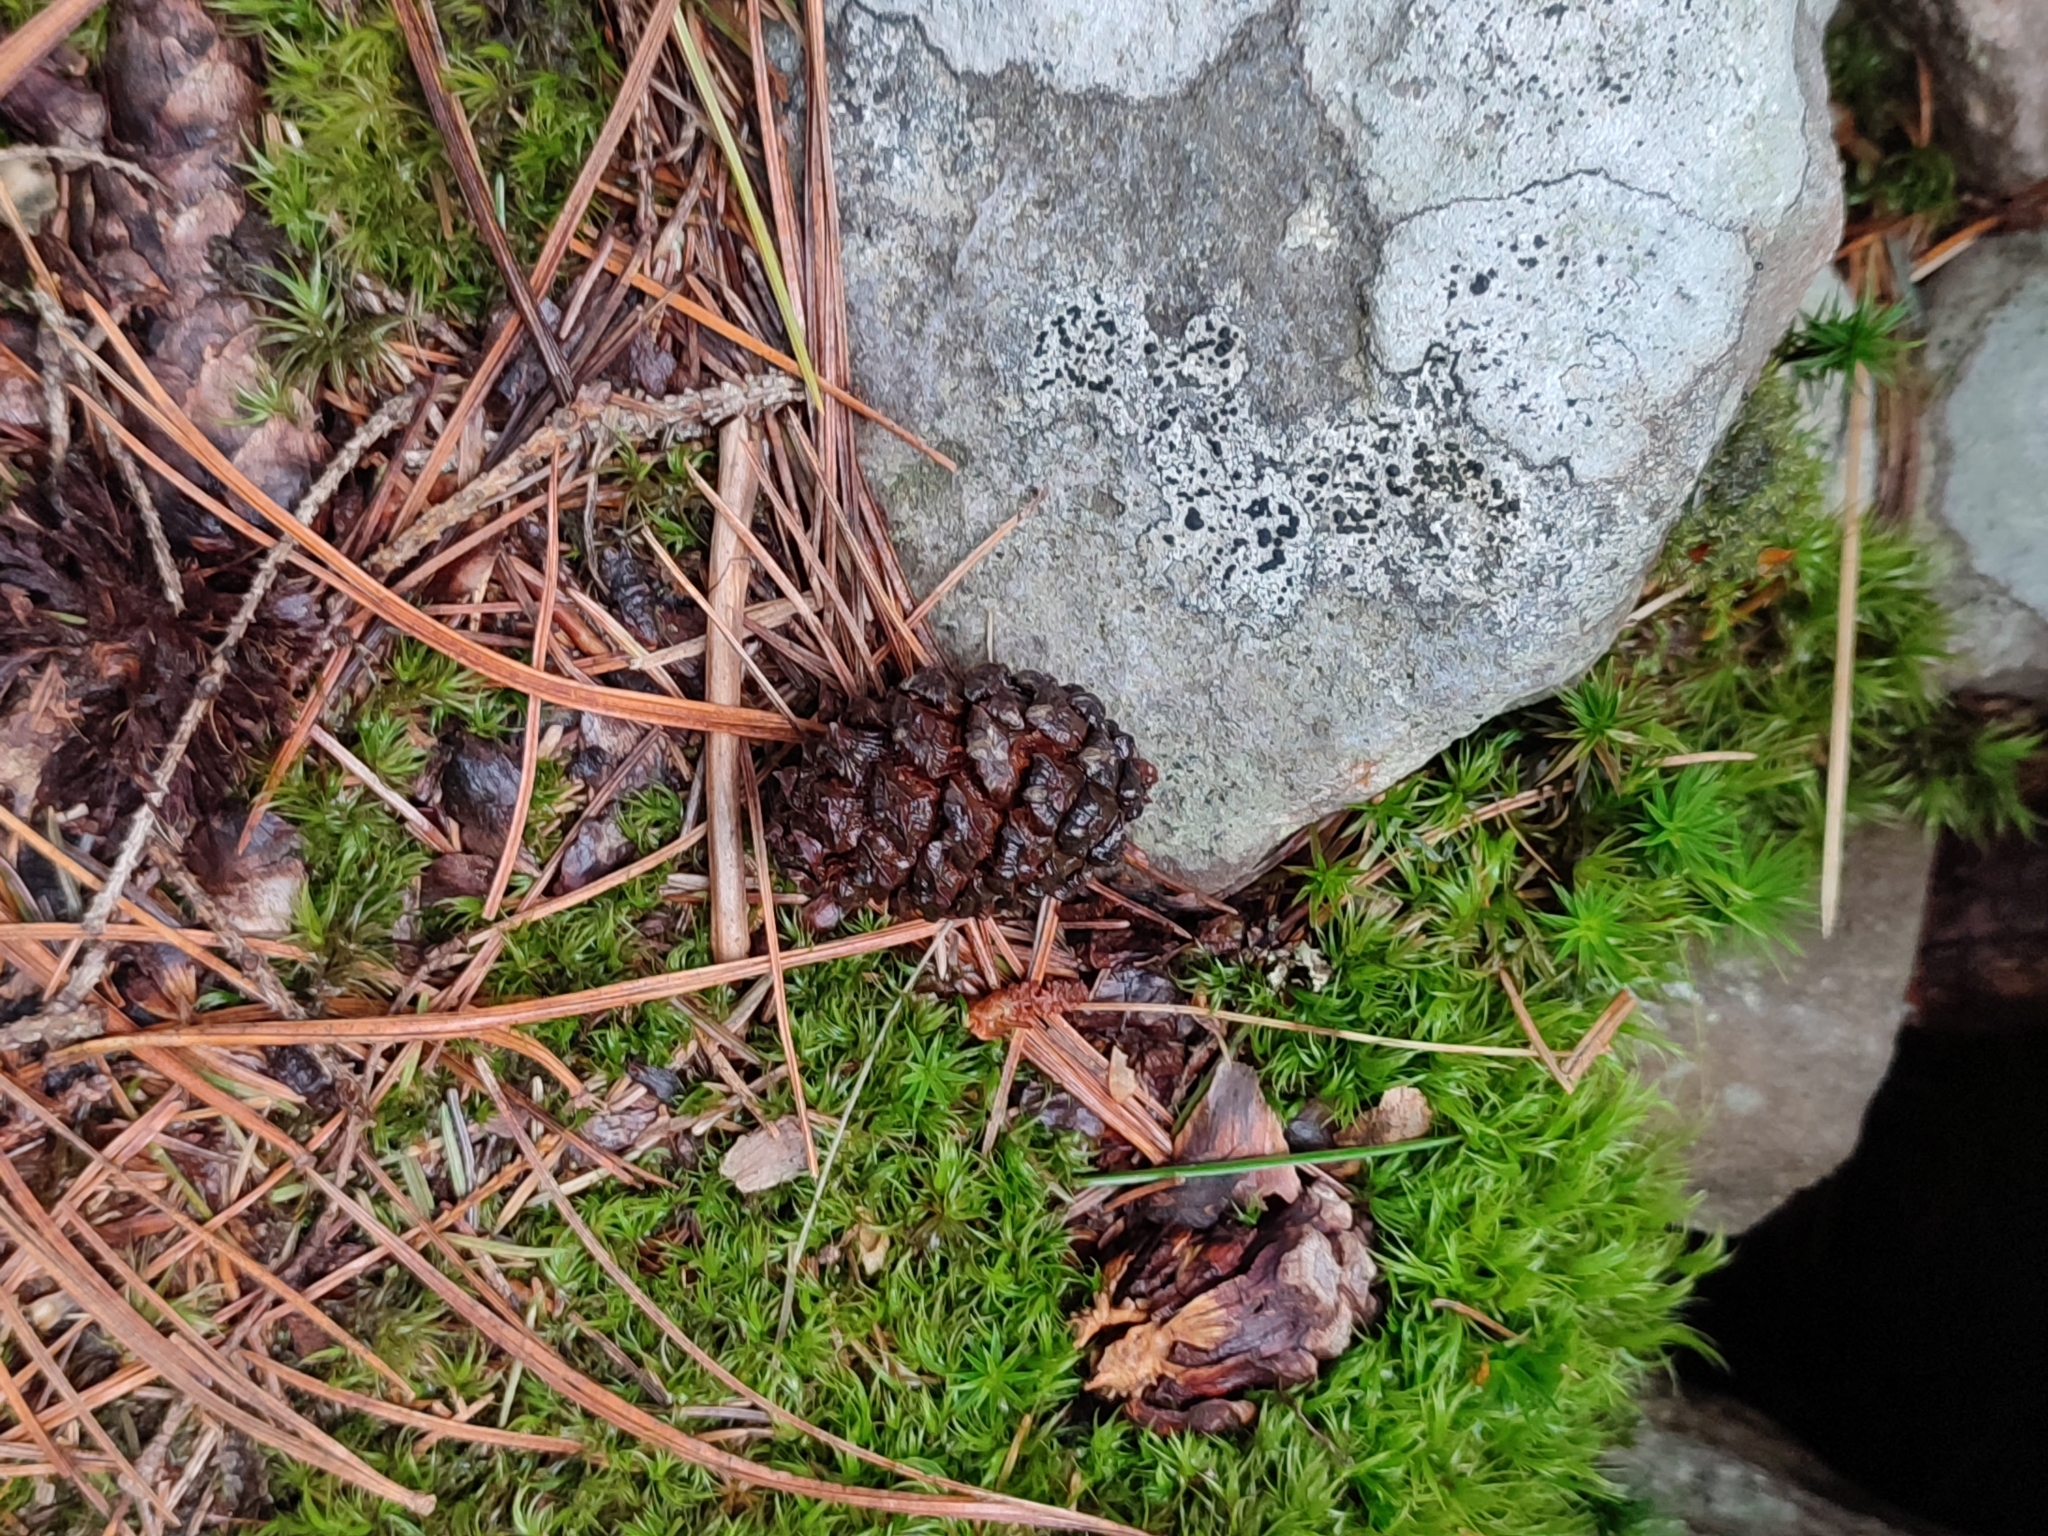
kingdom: Plantae
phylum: Tracheophyta
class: Pinopsida
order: Pinales
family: Pinaceae
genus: Pinus
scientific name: Pinus cembra
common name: Arolla pine
